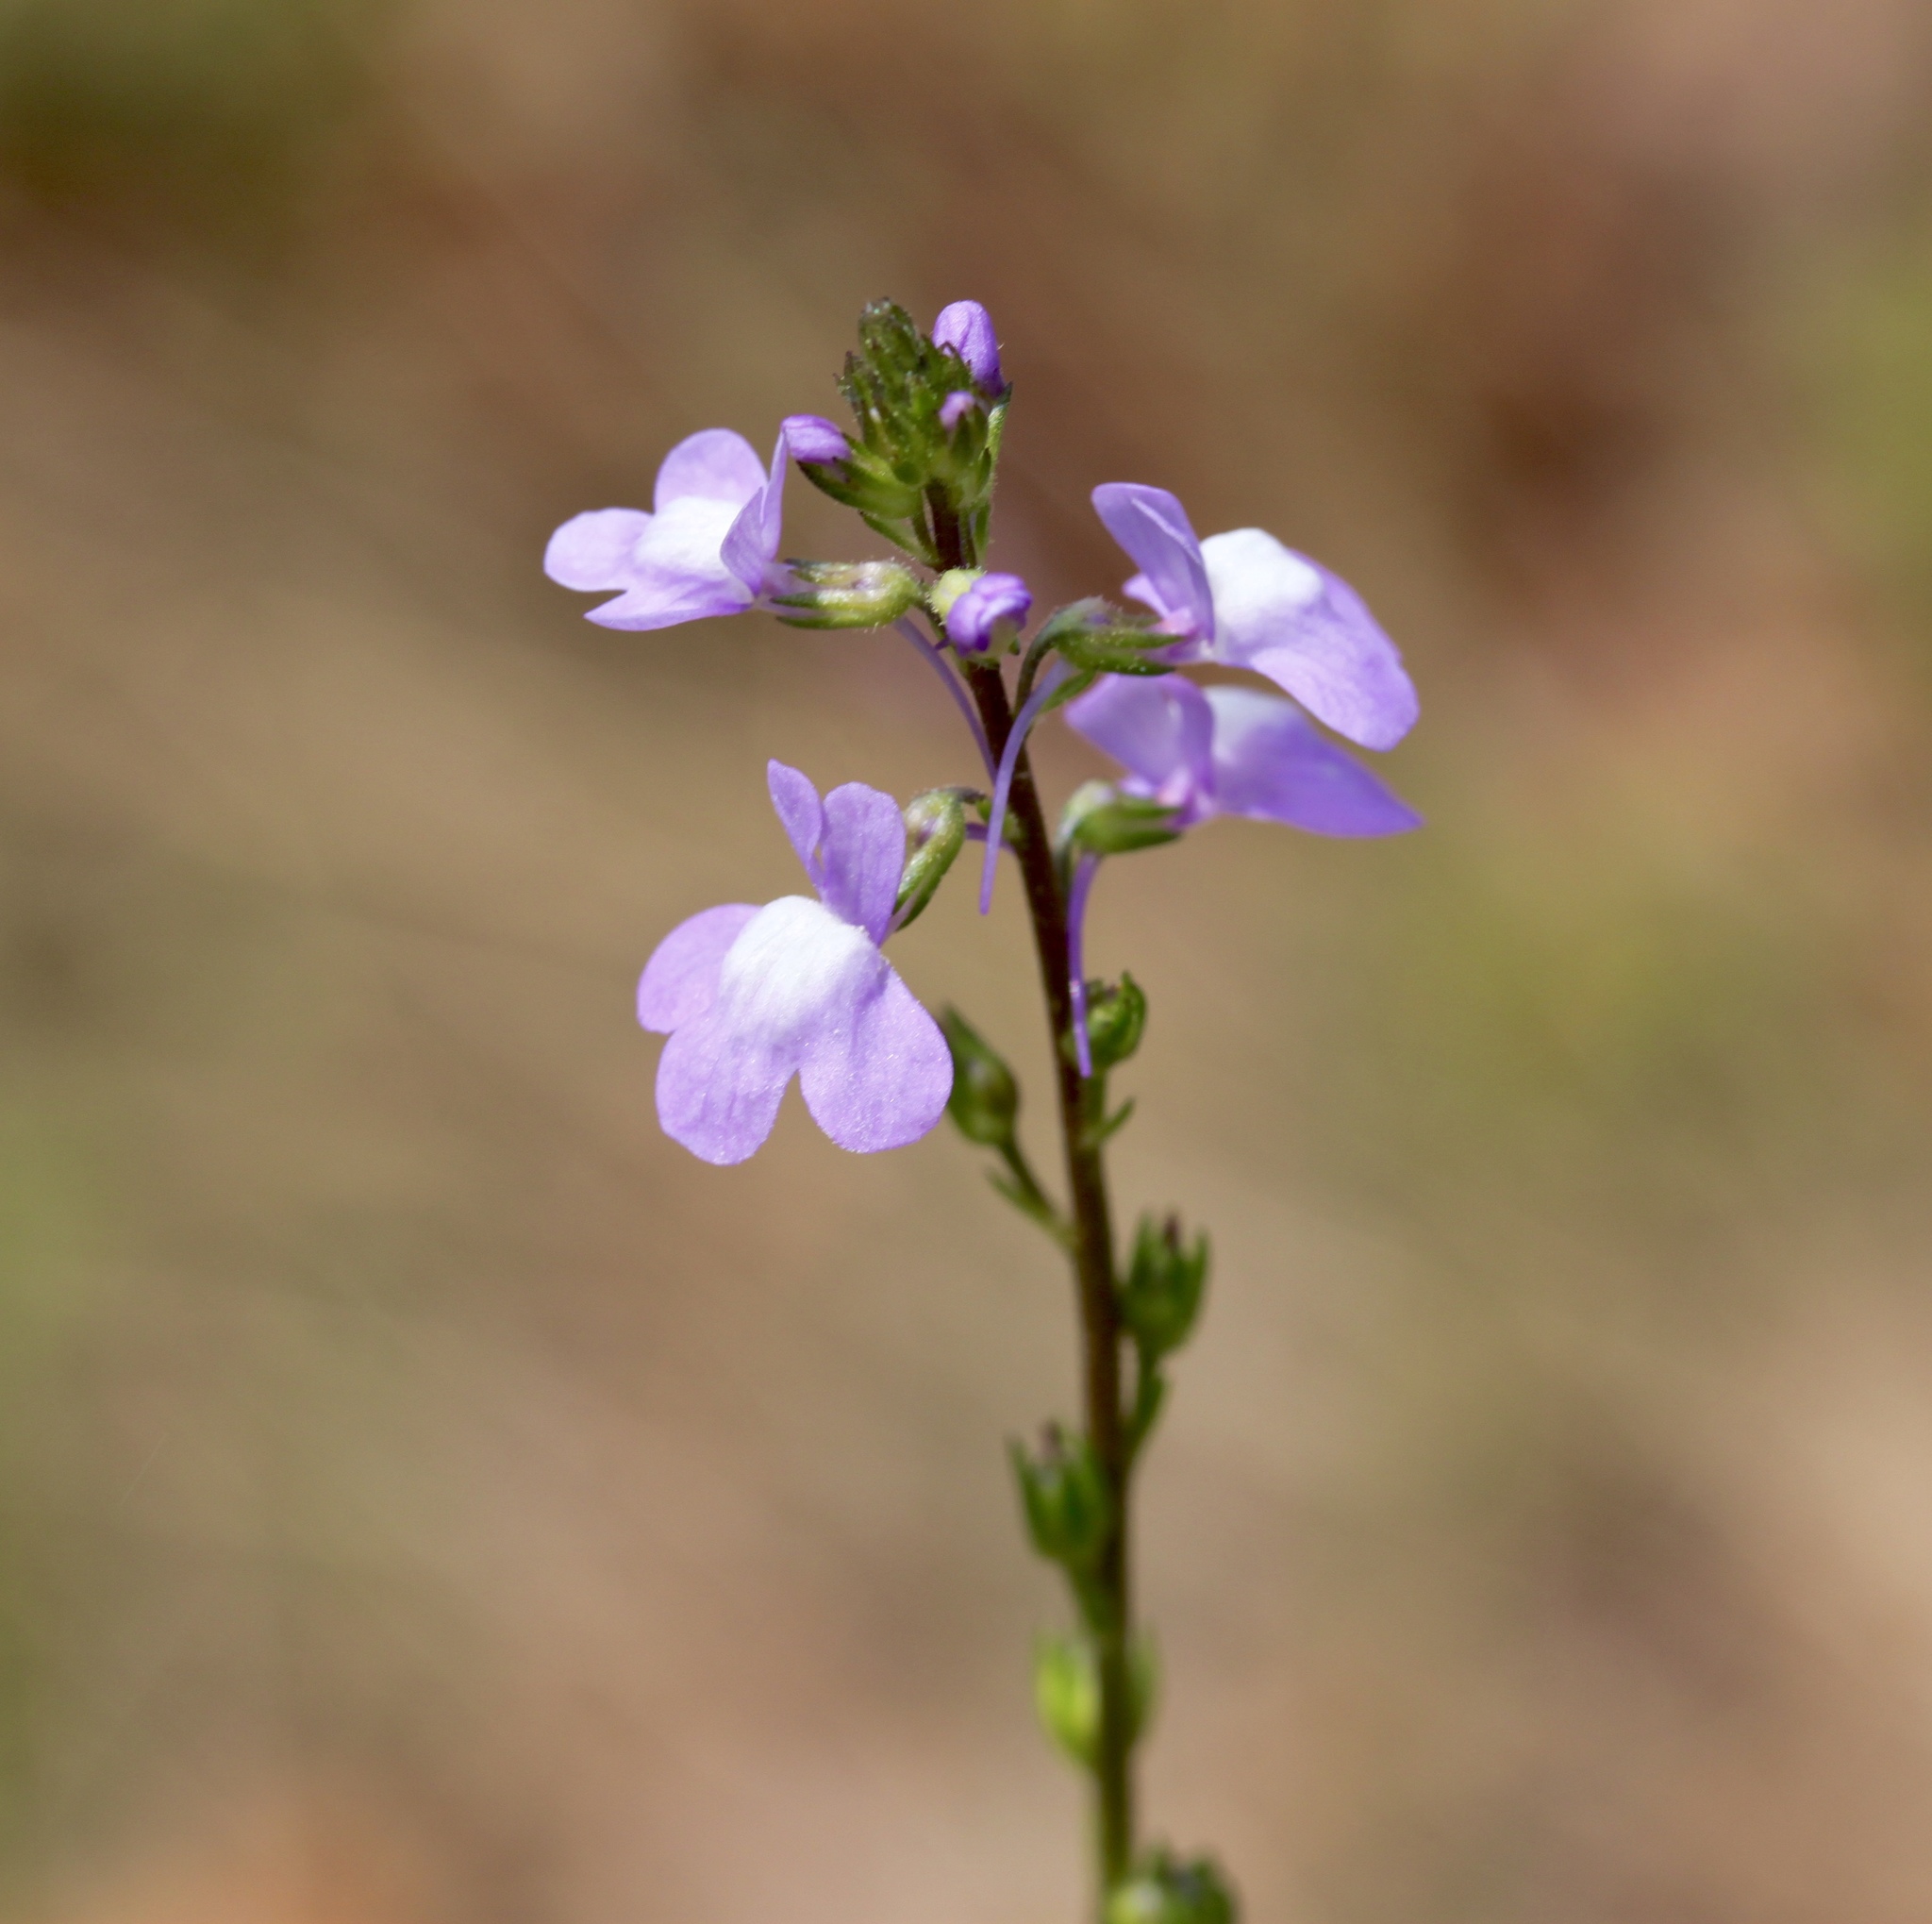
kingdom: Plantae
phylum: Tracheophyta
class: Magnoliopsida
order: Lamiales
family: Plantaginaceae
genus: Nuttallanthus
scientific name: Nuttallanthus canadensis
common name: Blue toadflax
